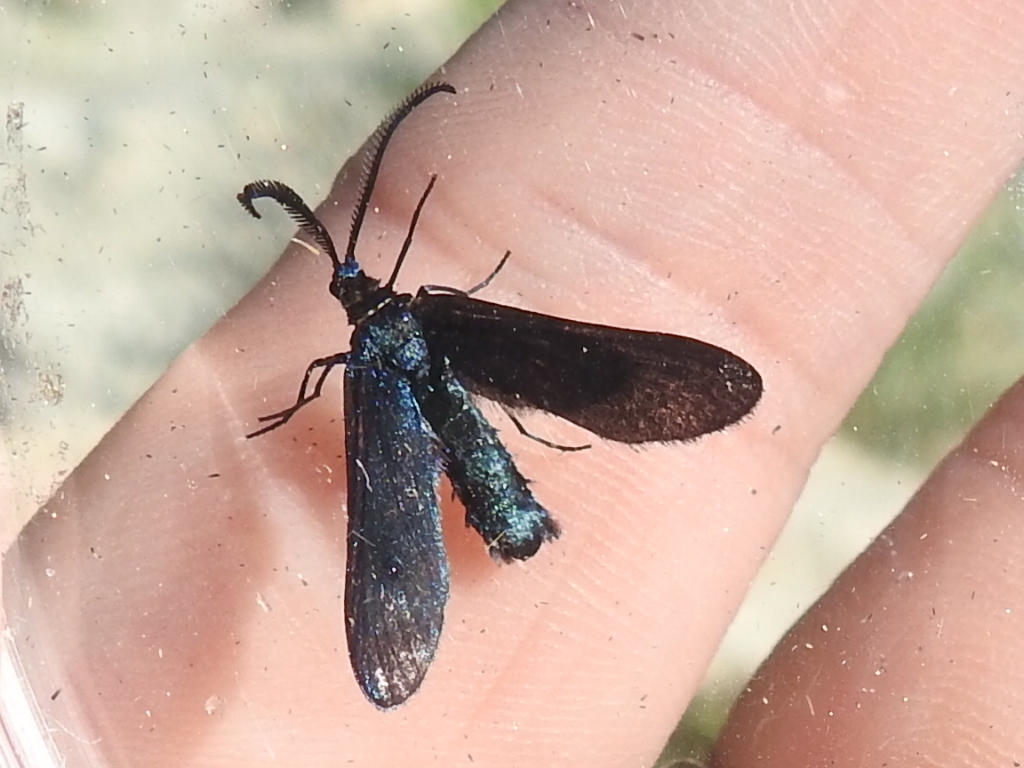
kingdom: Animalia
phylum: Arthropoda
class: Insecta
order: Lepidoptera
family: Zygaenidae
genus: Harrisina
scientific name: Harrisina metallica
